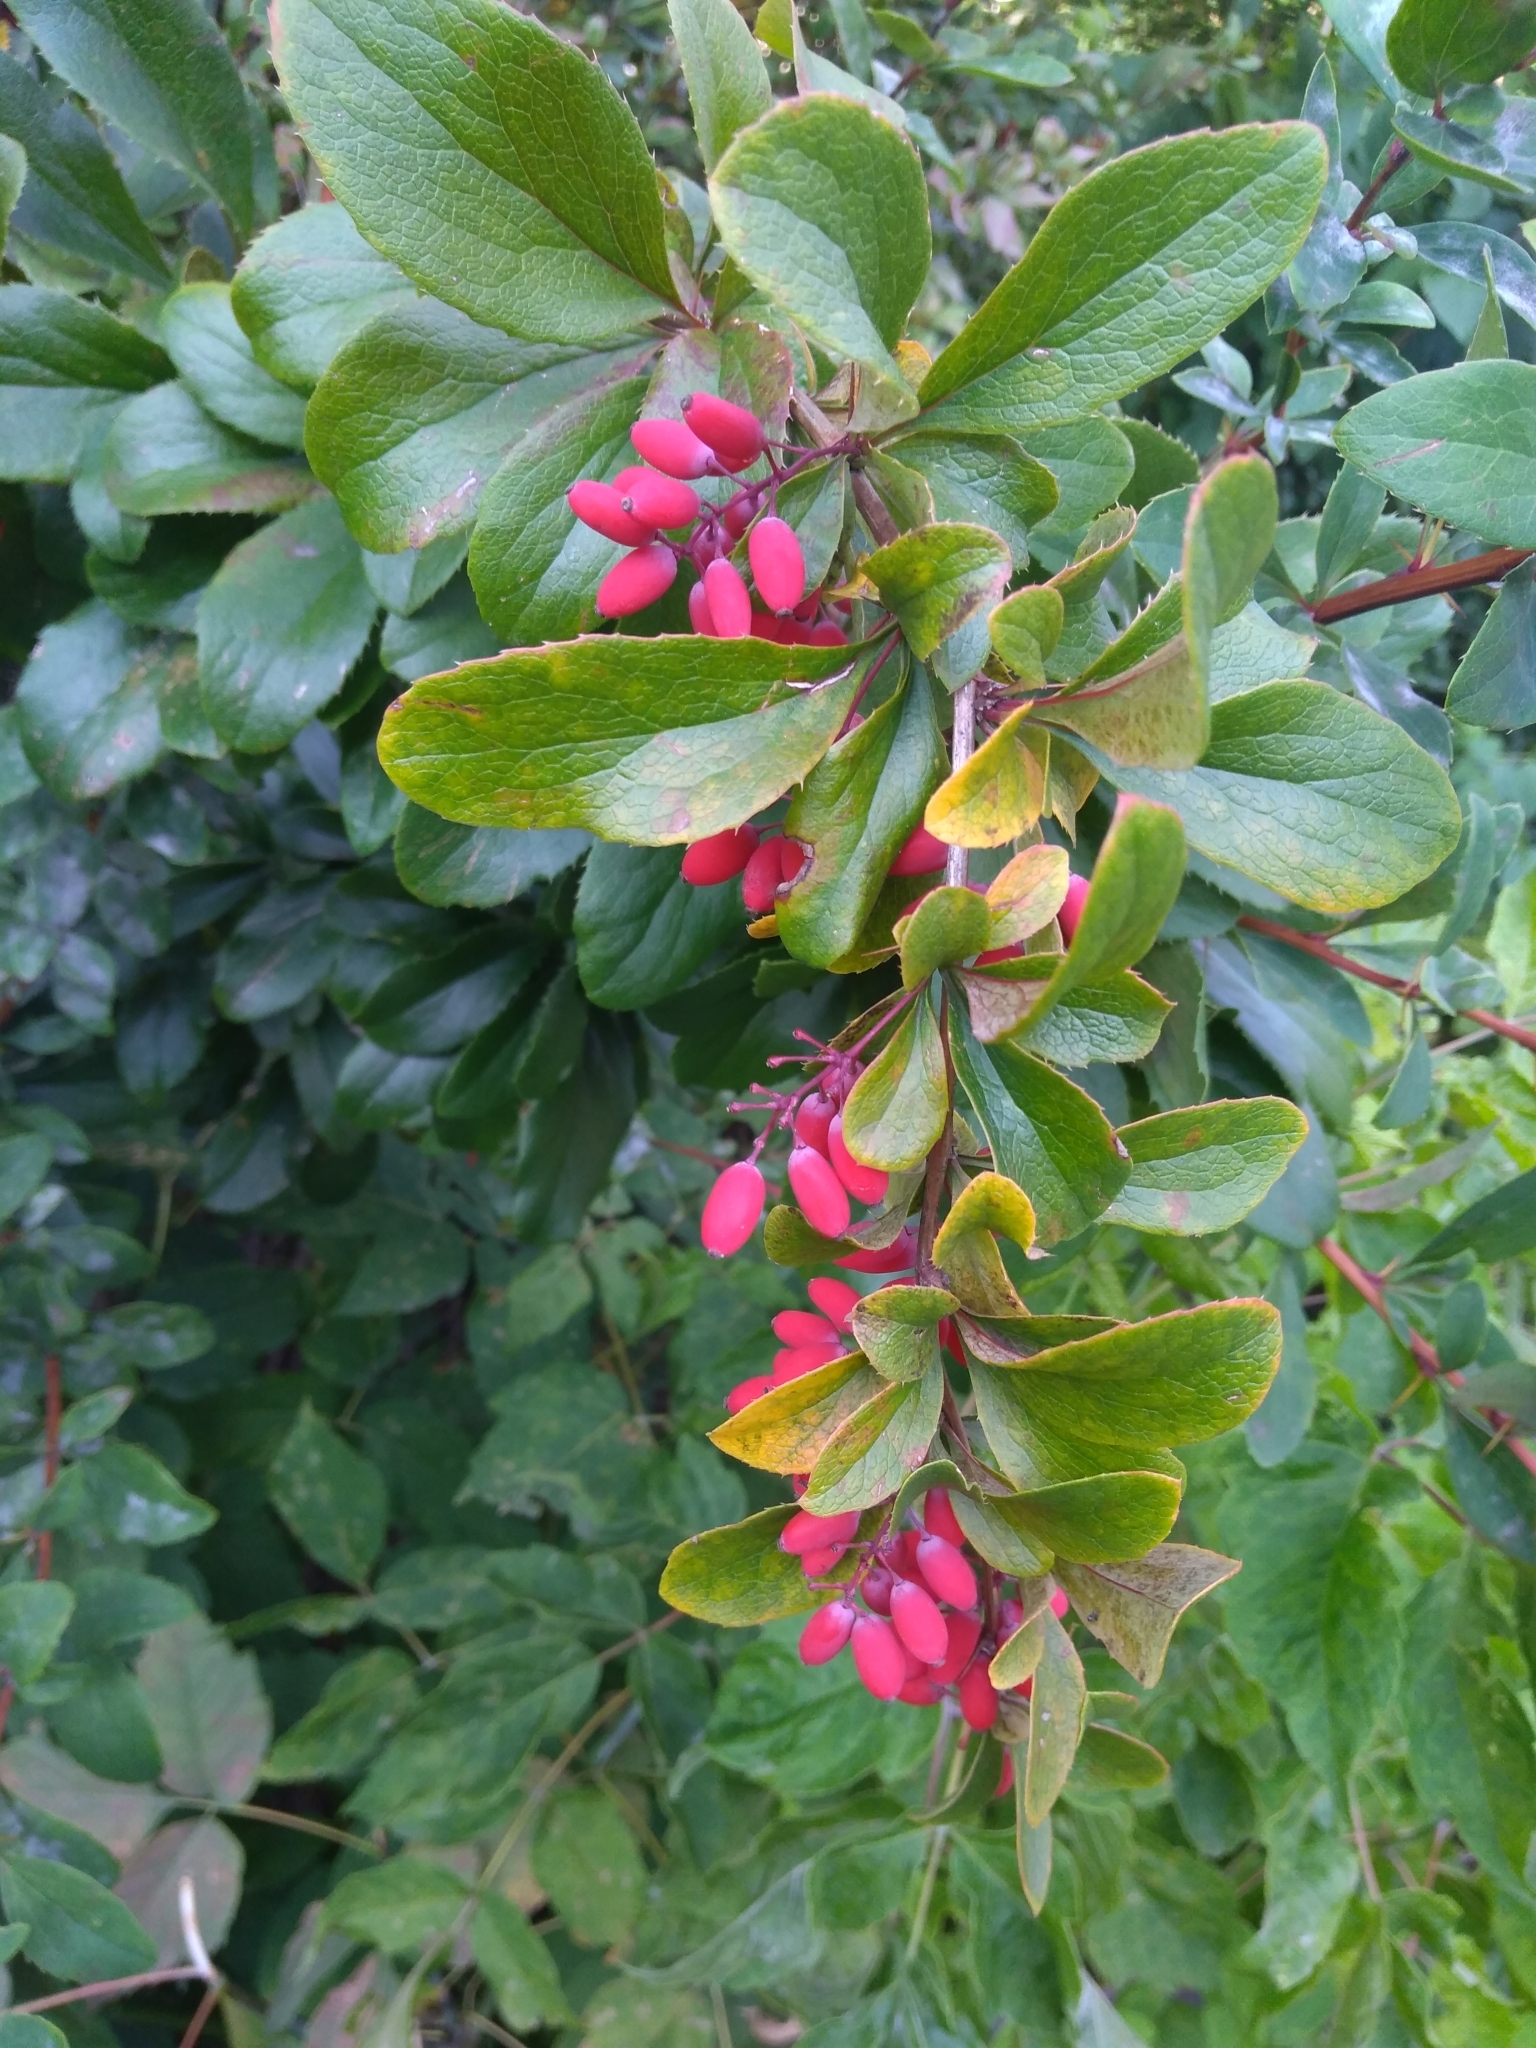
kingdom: Plantae
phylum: Tracheophyta
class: Magnoliopsida
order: Ranunculales
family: Berberidaceae
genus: Berberis
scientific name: Berberis vulgaris
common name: Barberry
